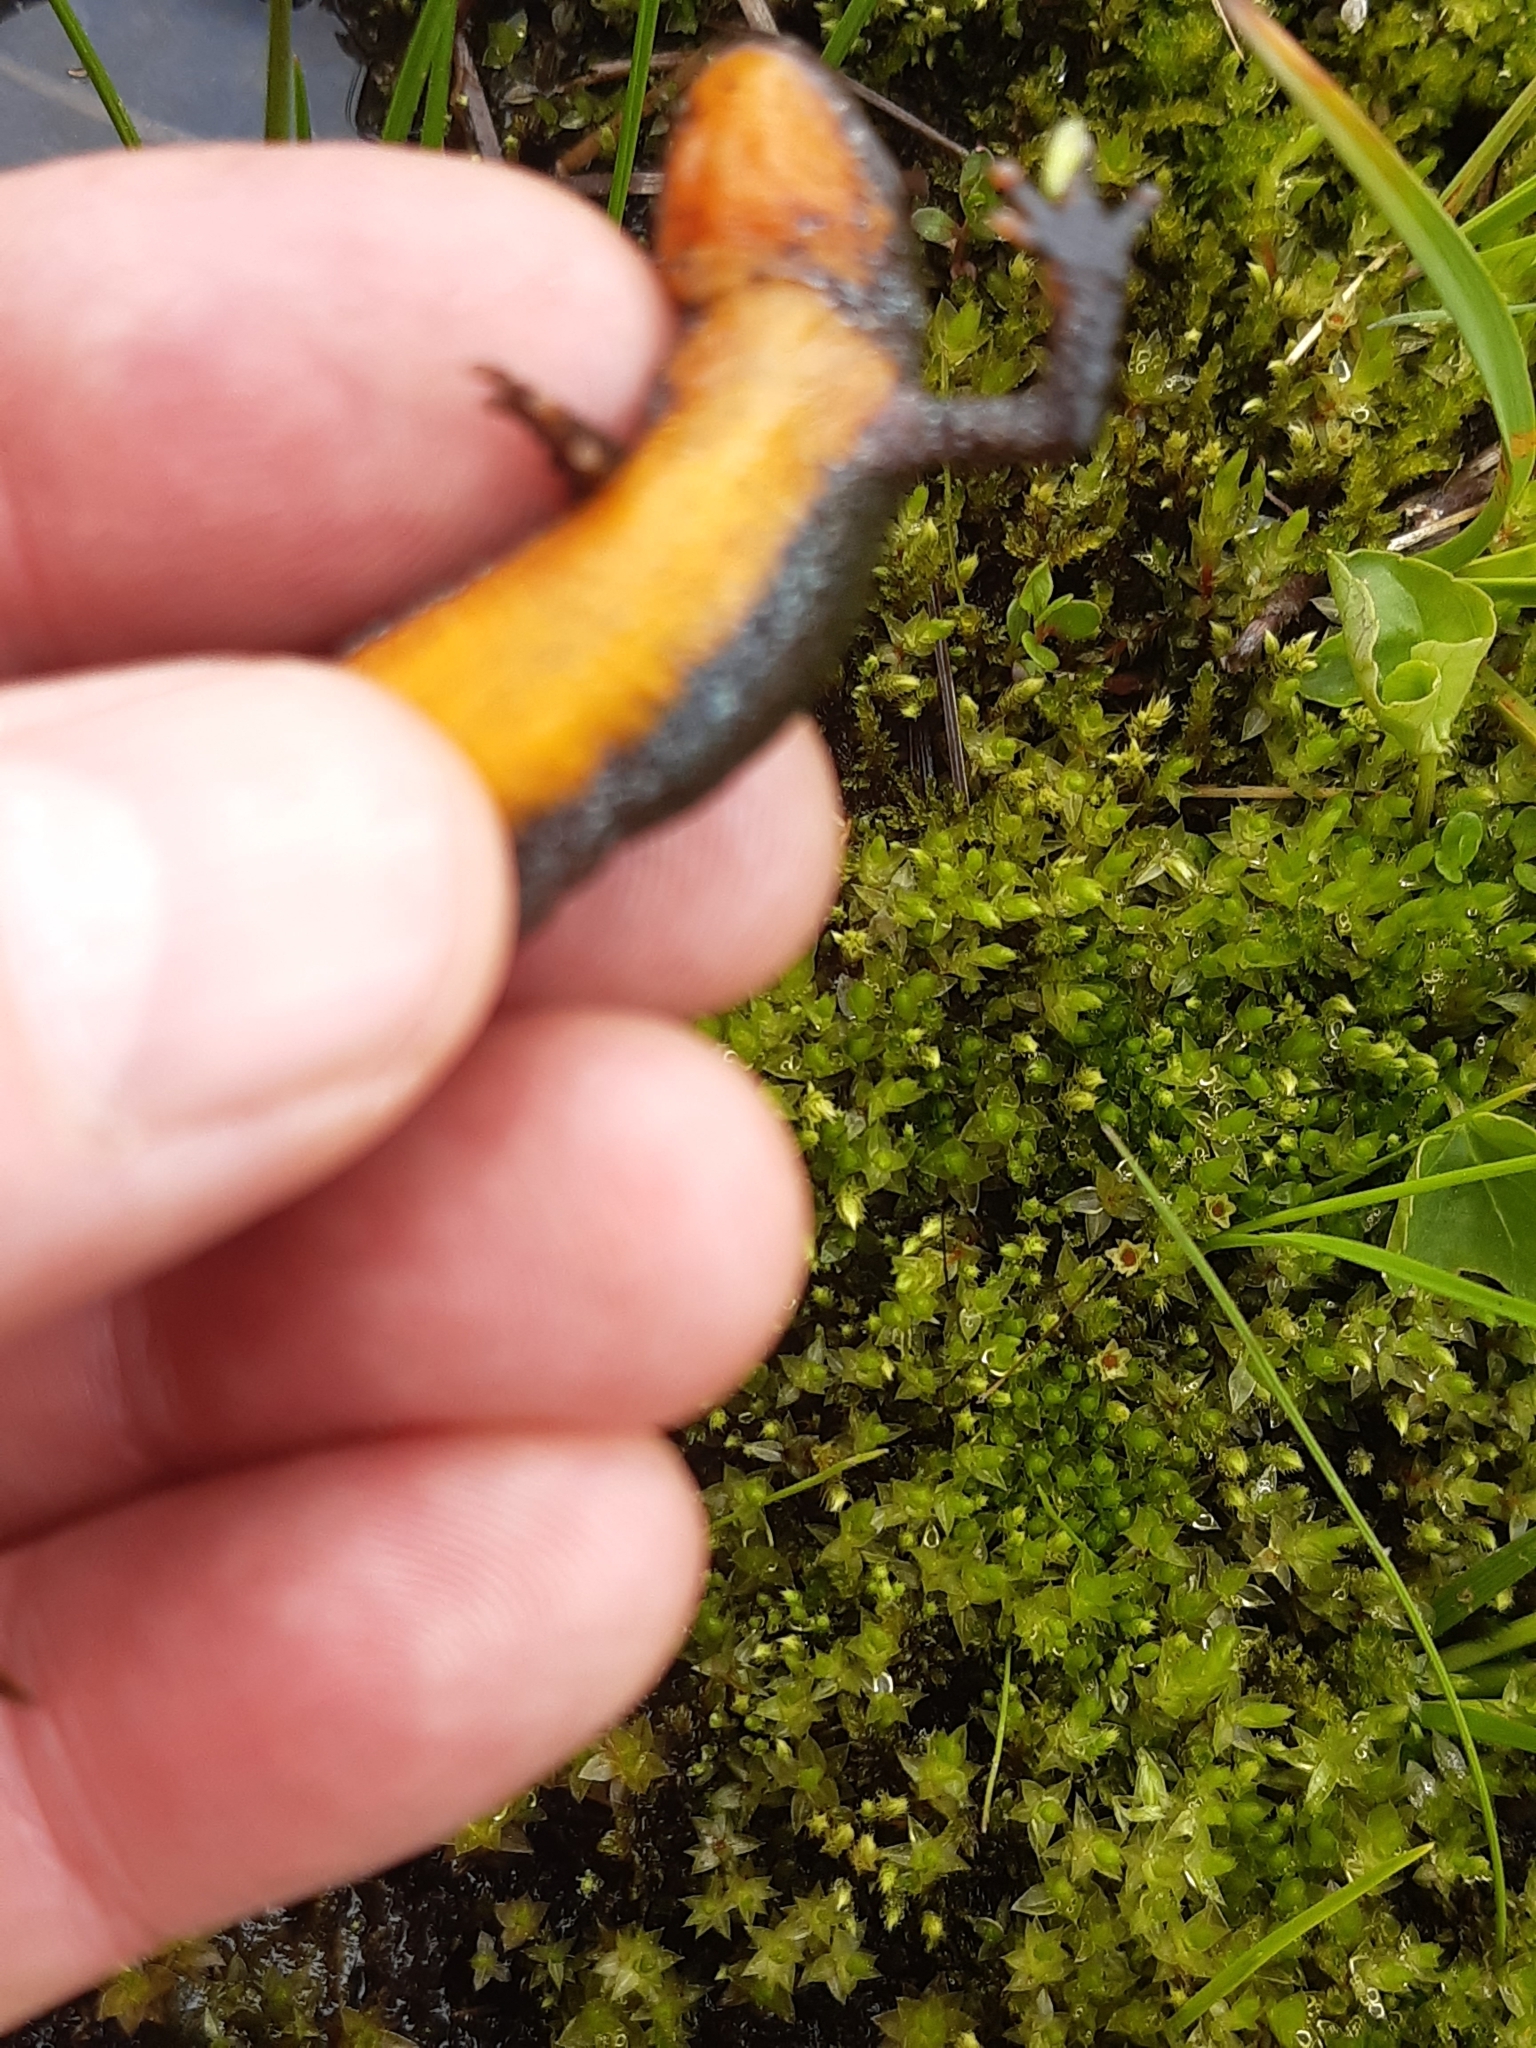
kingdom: Animalia
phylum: Chordata
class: Amphibia
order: Caudata
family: Salamandridae
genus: Ichthyosaura
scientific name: Ichthyosaura alpestris
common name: Alpine newt
